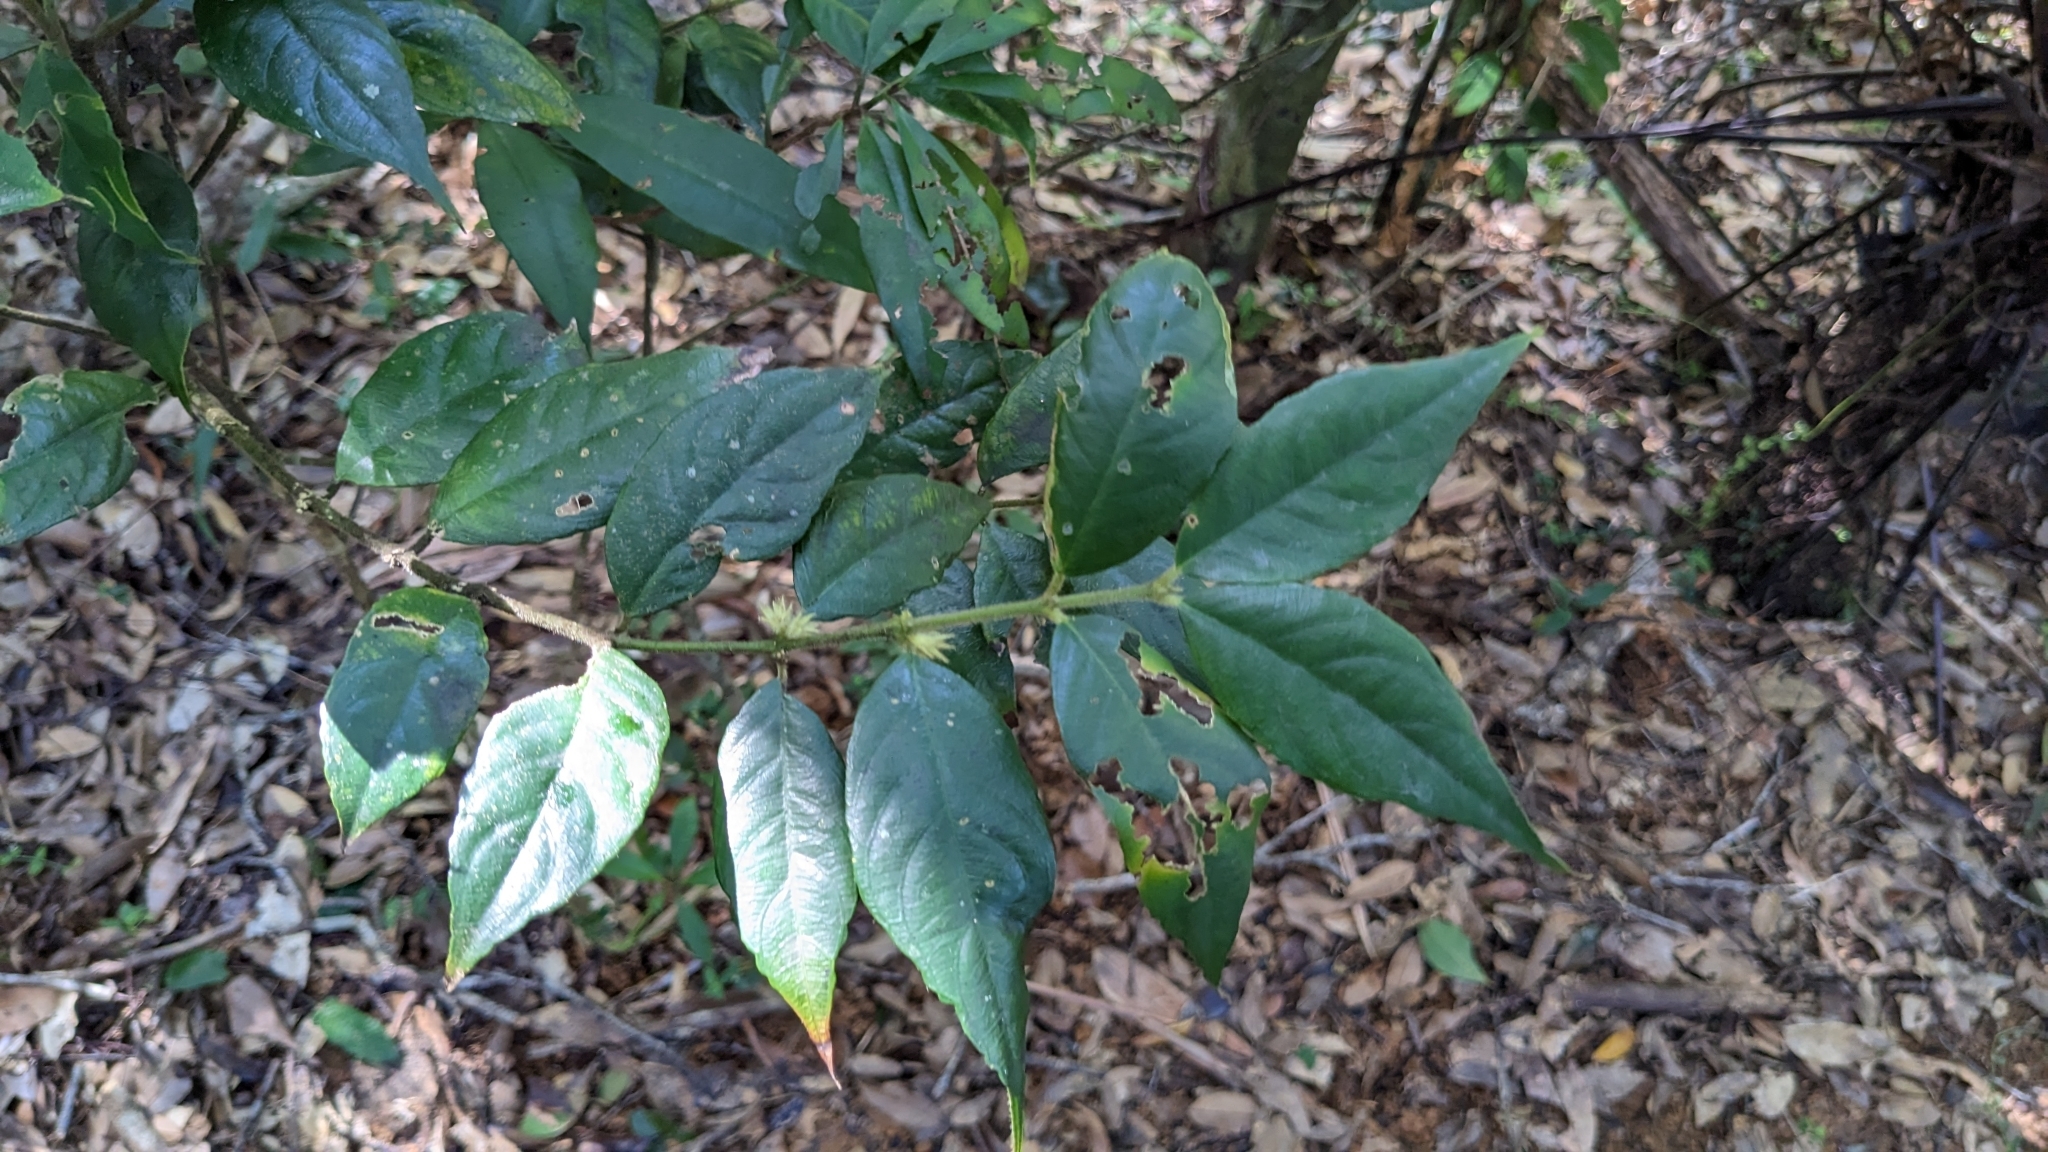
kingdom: Plantae
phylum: Tracheophyta
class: Magnoliopsida
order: Gentianales
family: Rubiaceae
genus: Lasianthus
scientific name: Lasianthus curtisii
